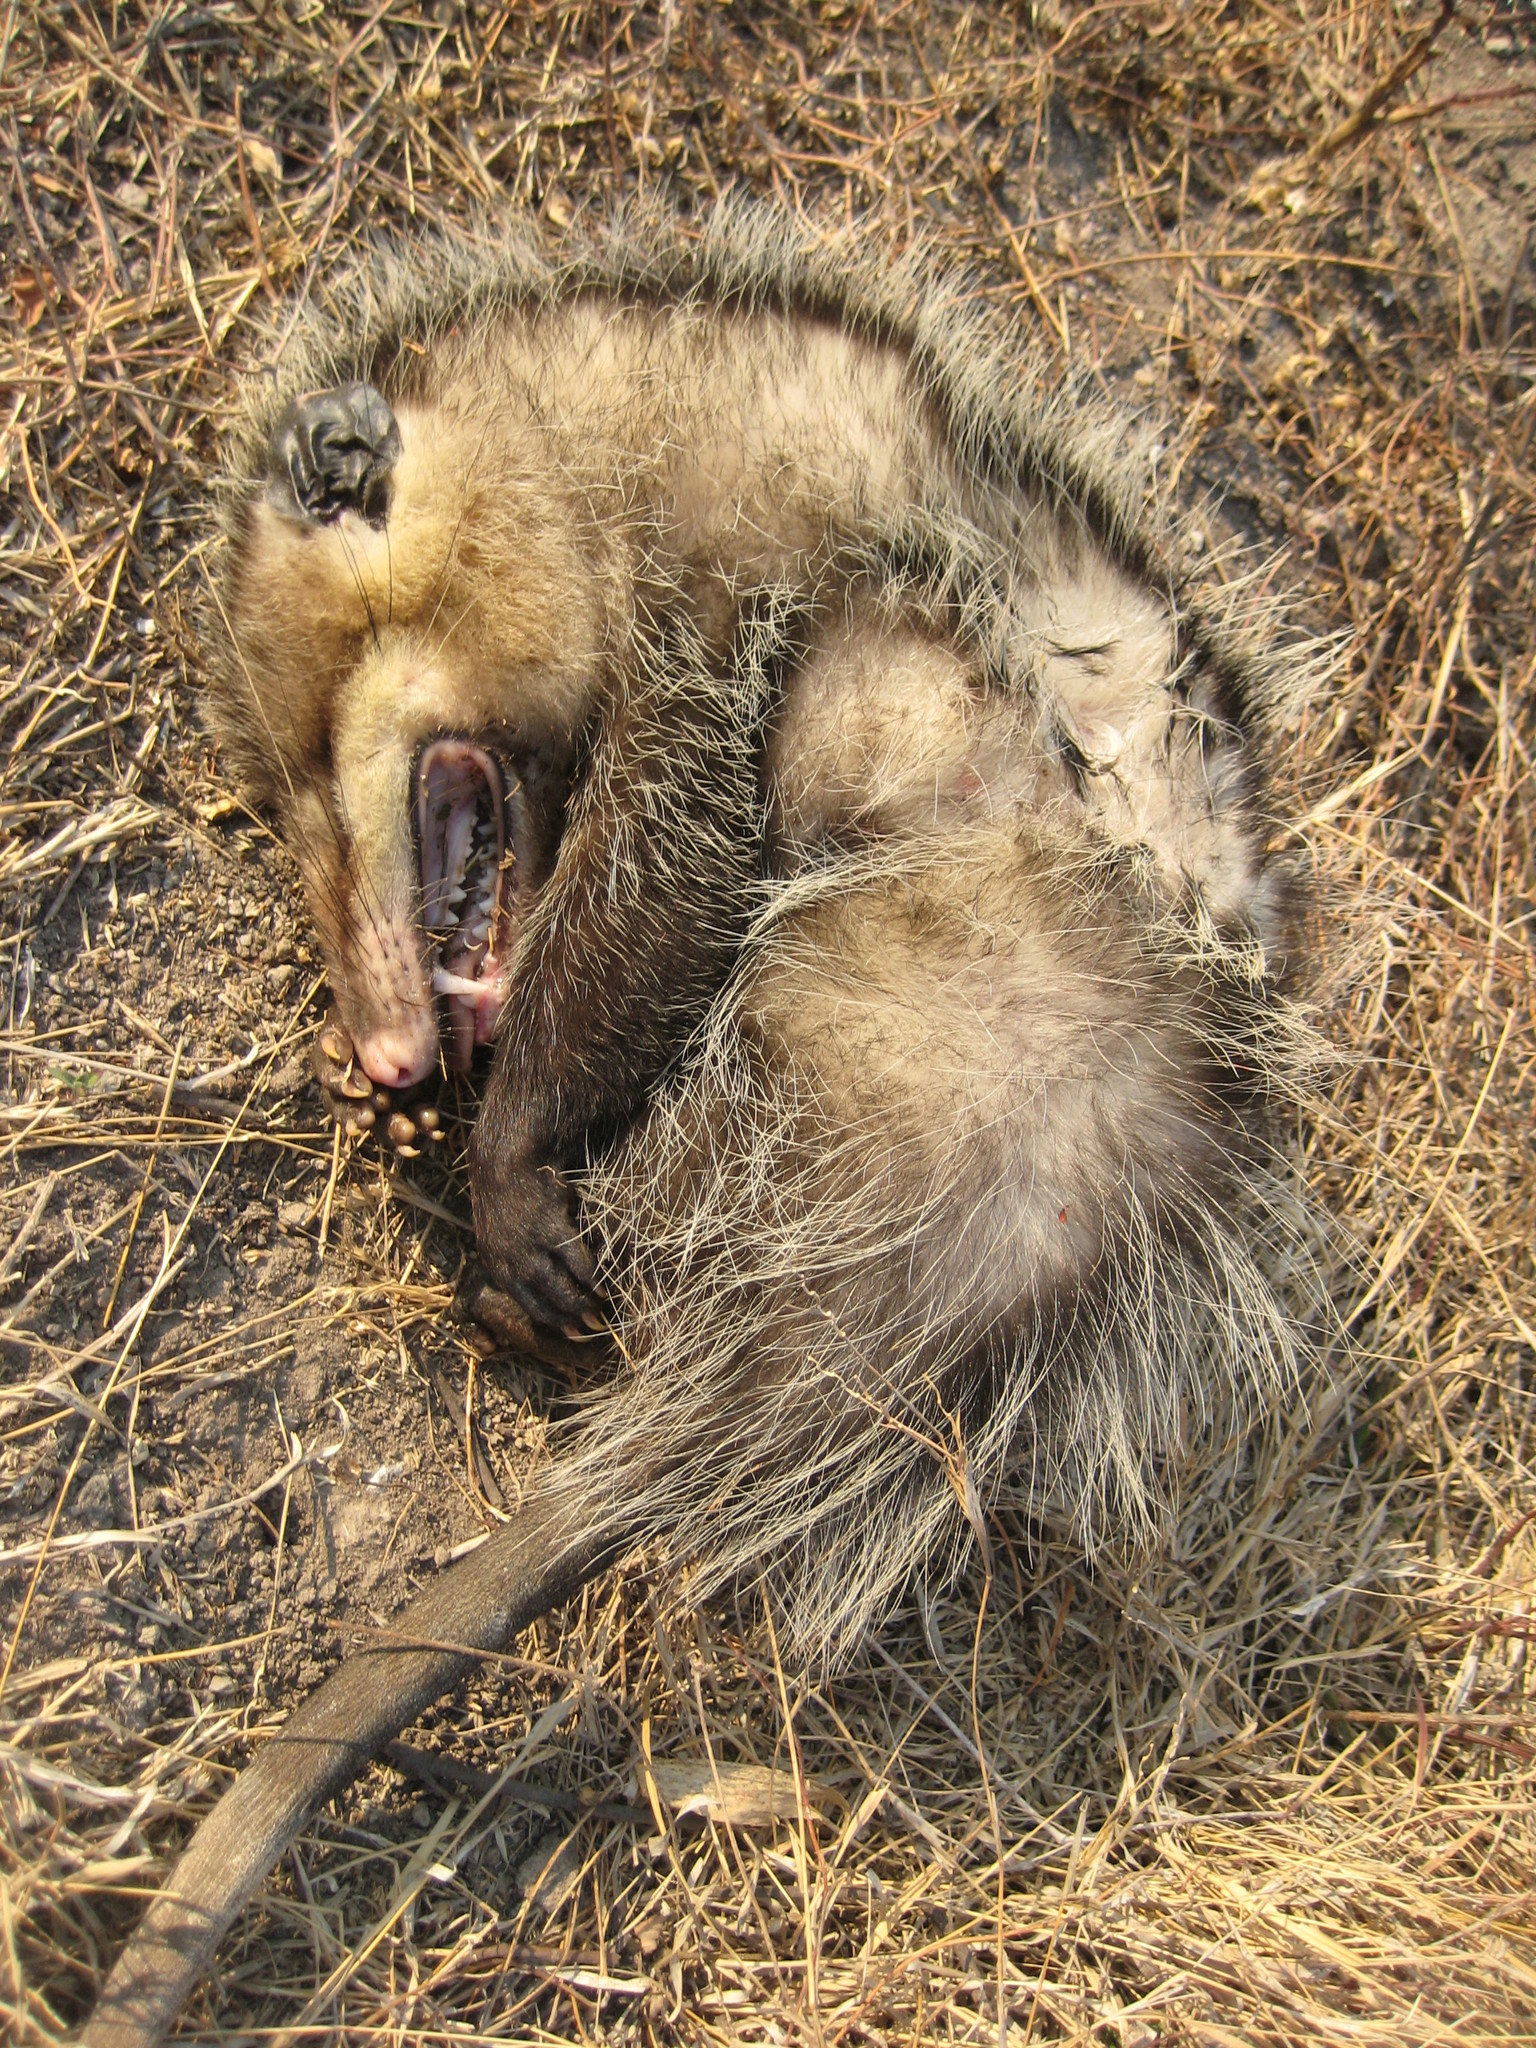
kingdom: Animalia
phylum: Chordata
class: Mammalia
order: Didelphimorphia
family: Didelphidae
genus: Didelphis
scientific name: Didelphis virginiana
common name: Virginia opossum
